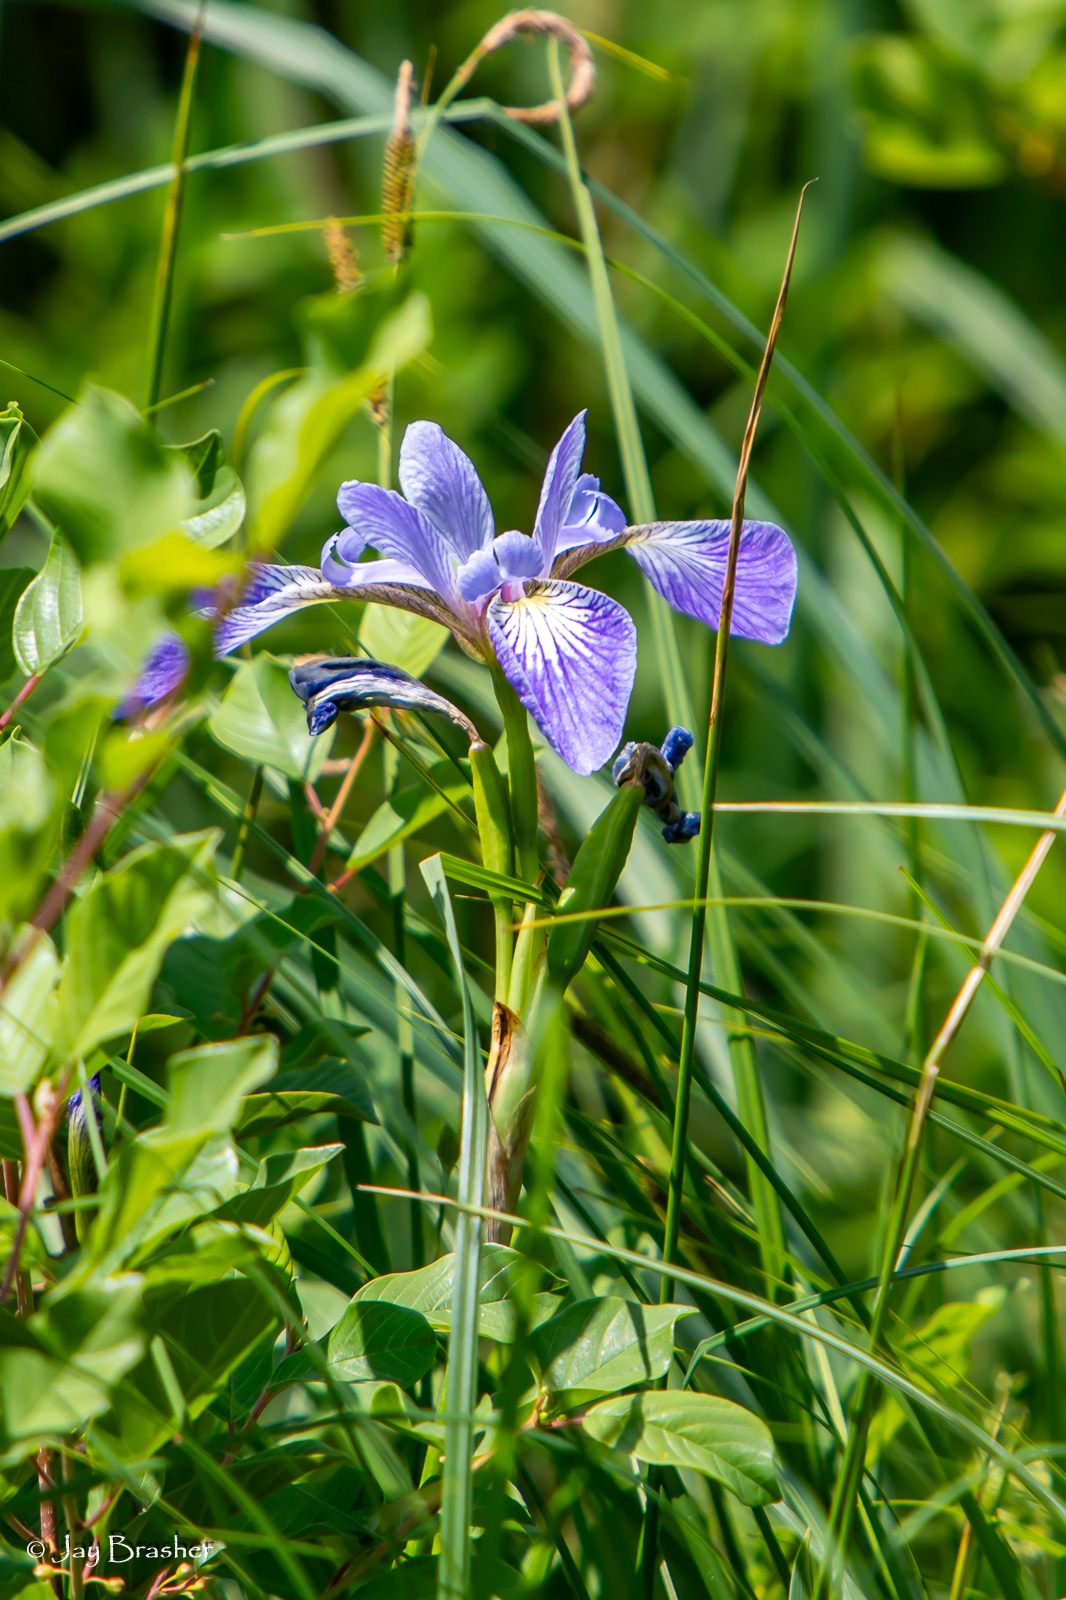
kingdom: Plantae
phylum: Tracheophyta
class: Liliopsida
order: Asparagales
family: Iridaceae
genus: Iris
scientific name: Iris versicolor
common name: Purple iris
